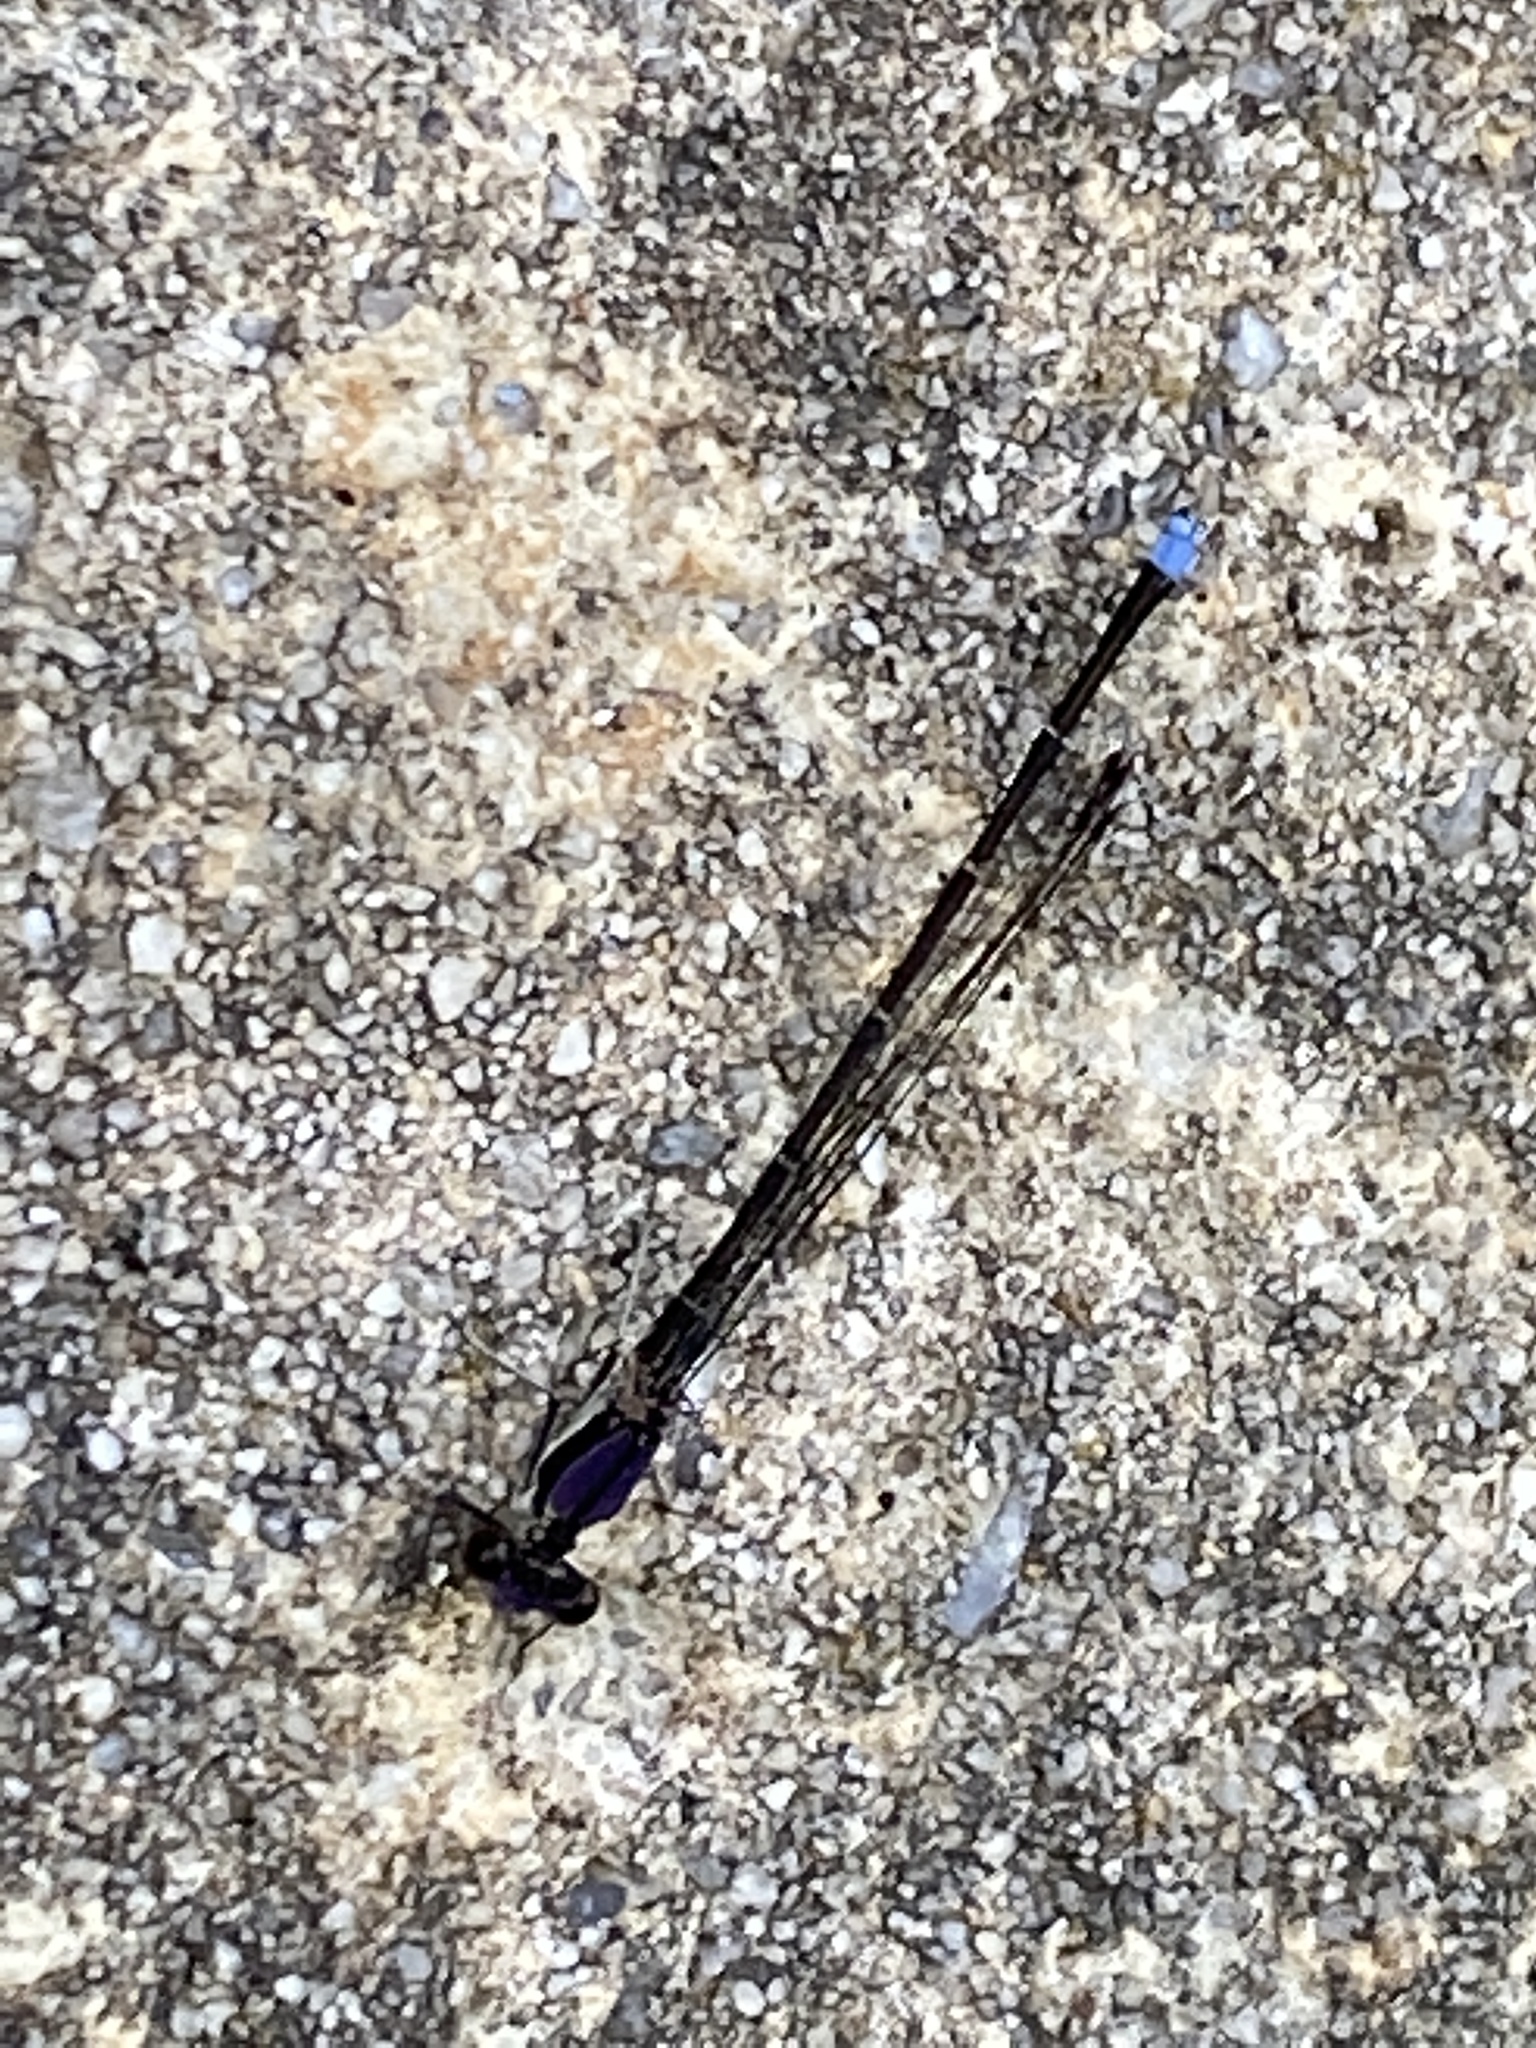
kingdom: Animalia
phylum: Arthropoda
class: Insecta
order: Odonata
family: Coenagrionidae
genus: Argia
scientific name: Argia tibialis
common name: Blue-tipped dancer
